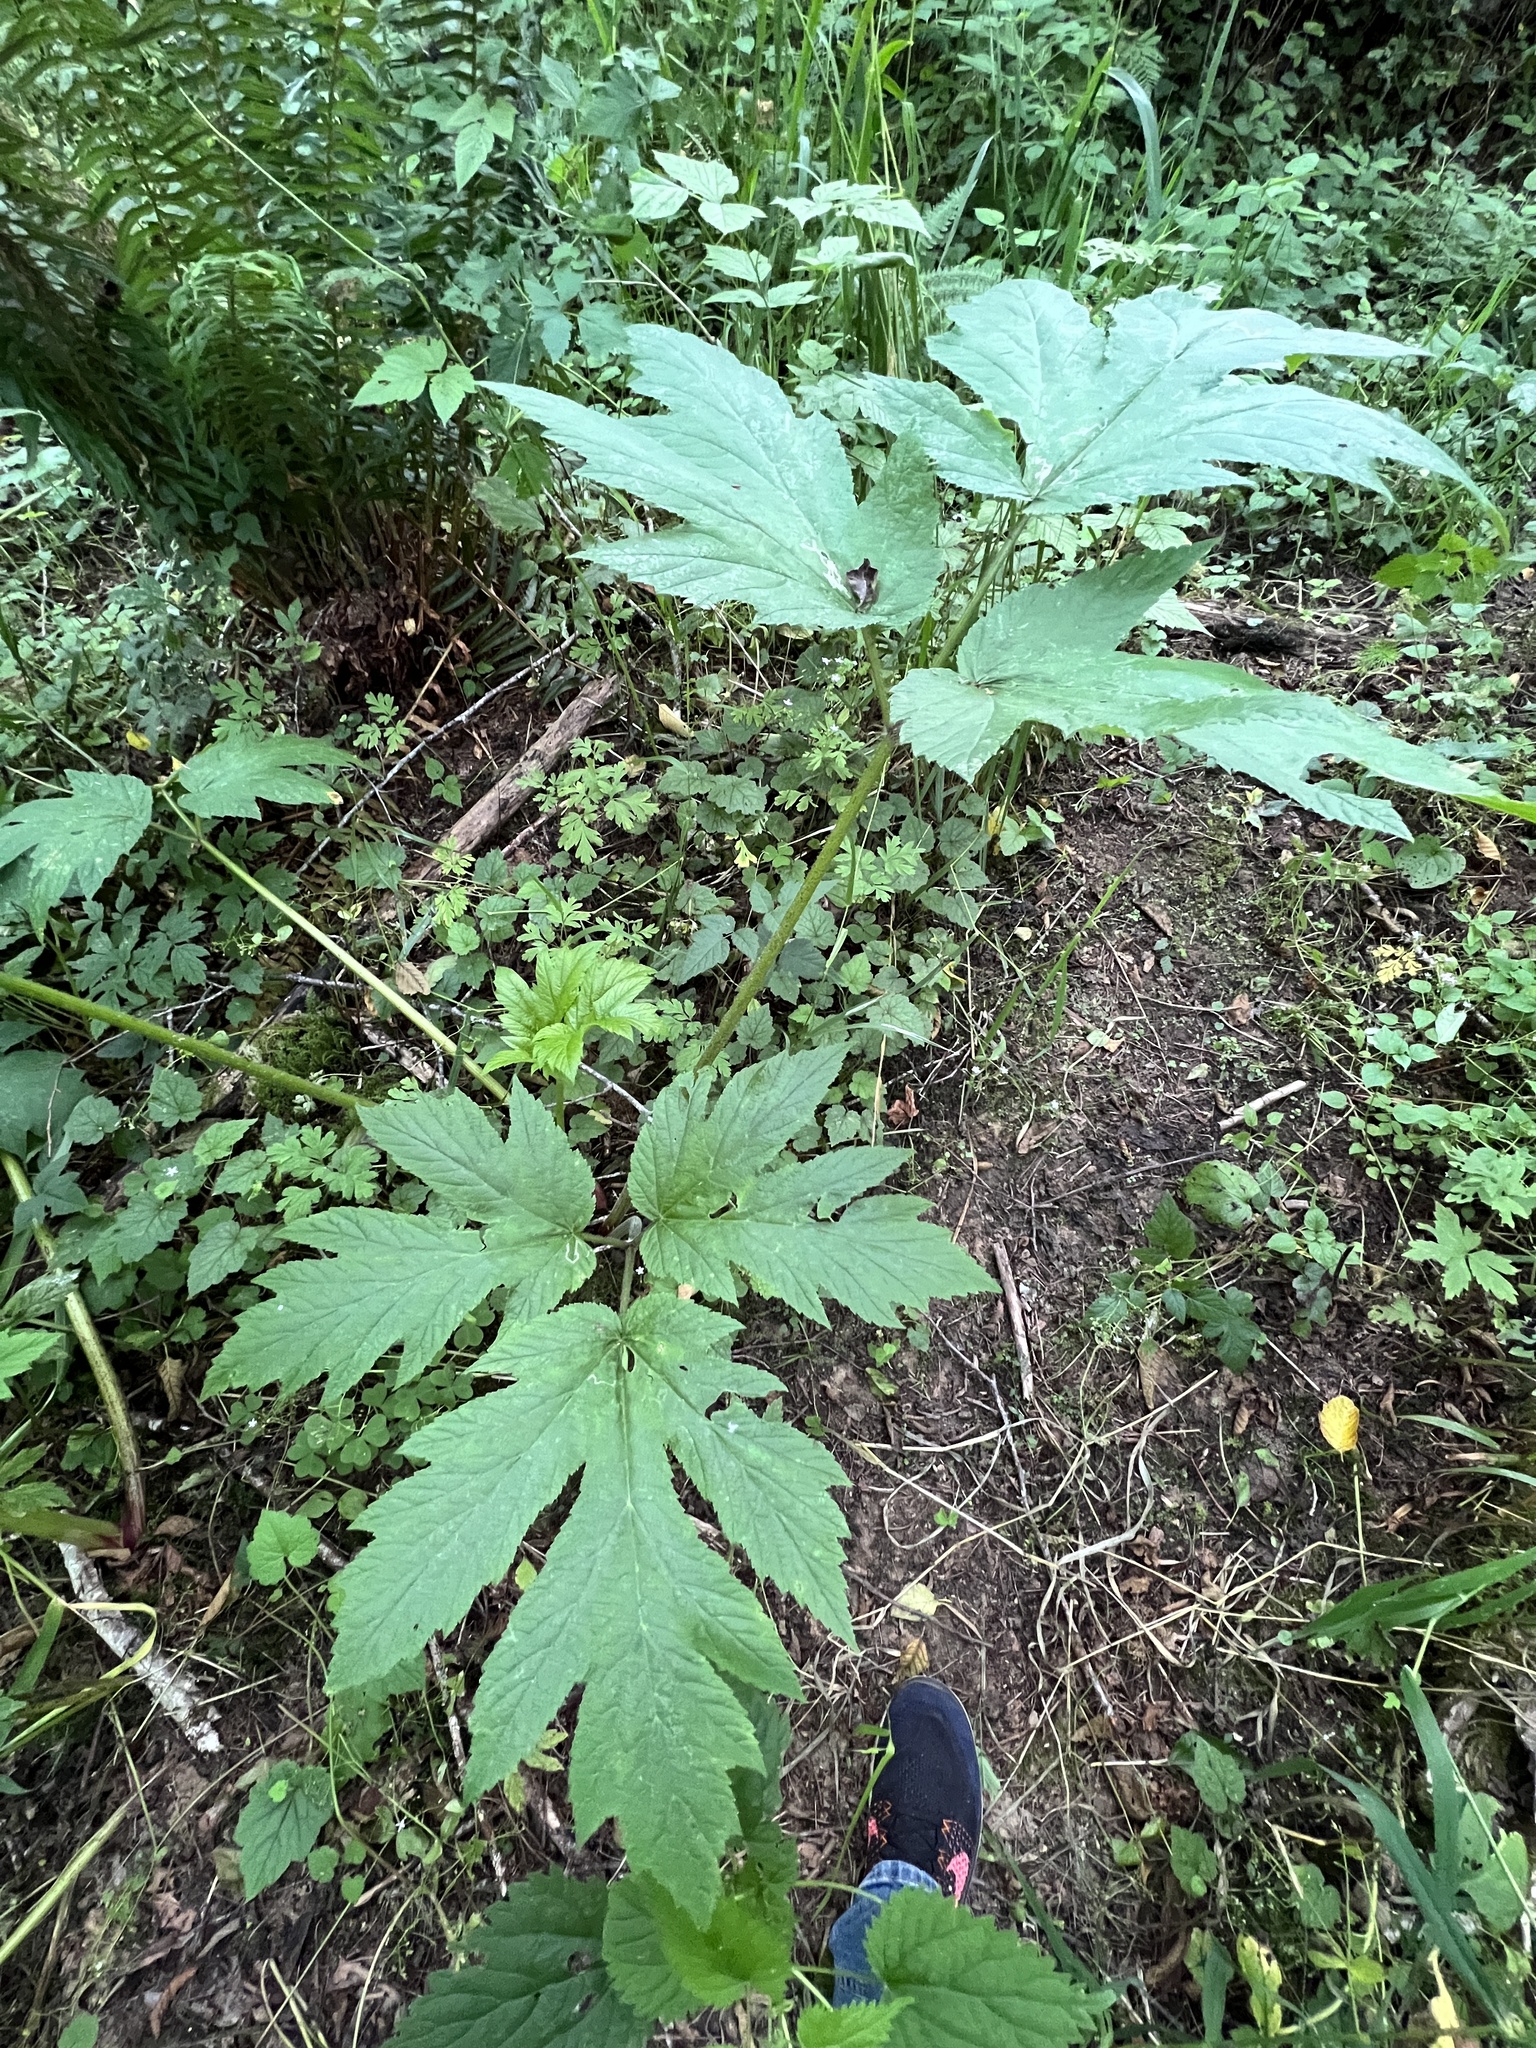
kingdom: Plantae
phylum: Tracheophyta
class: Magnoliopsida
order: Apiales
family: Apiaceae
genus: Heracleum
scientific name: Heracleum maximum
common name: American cow parsnip
